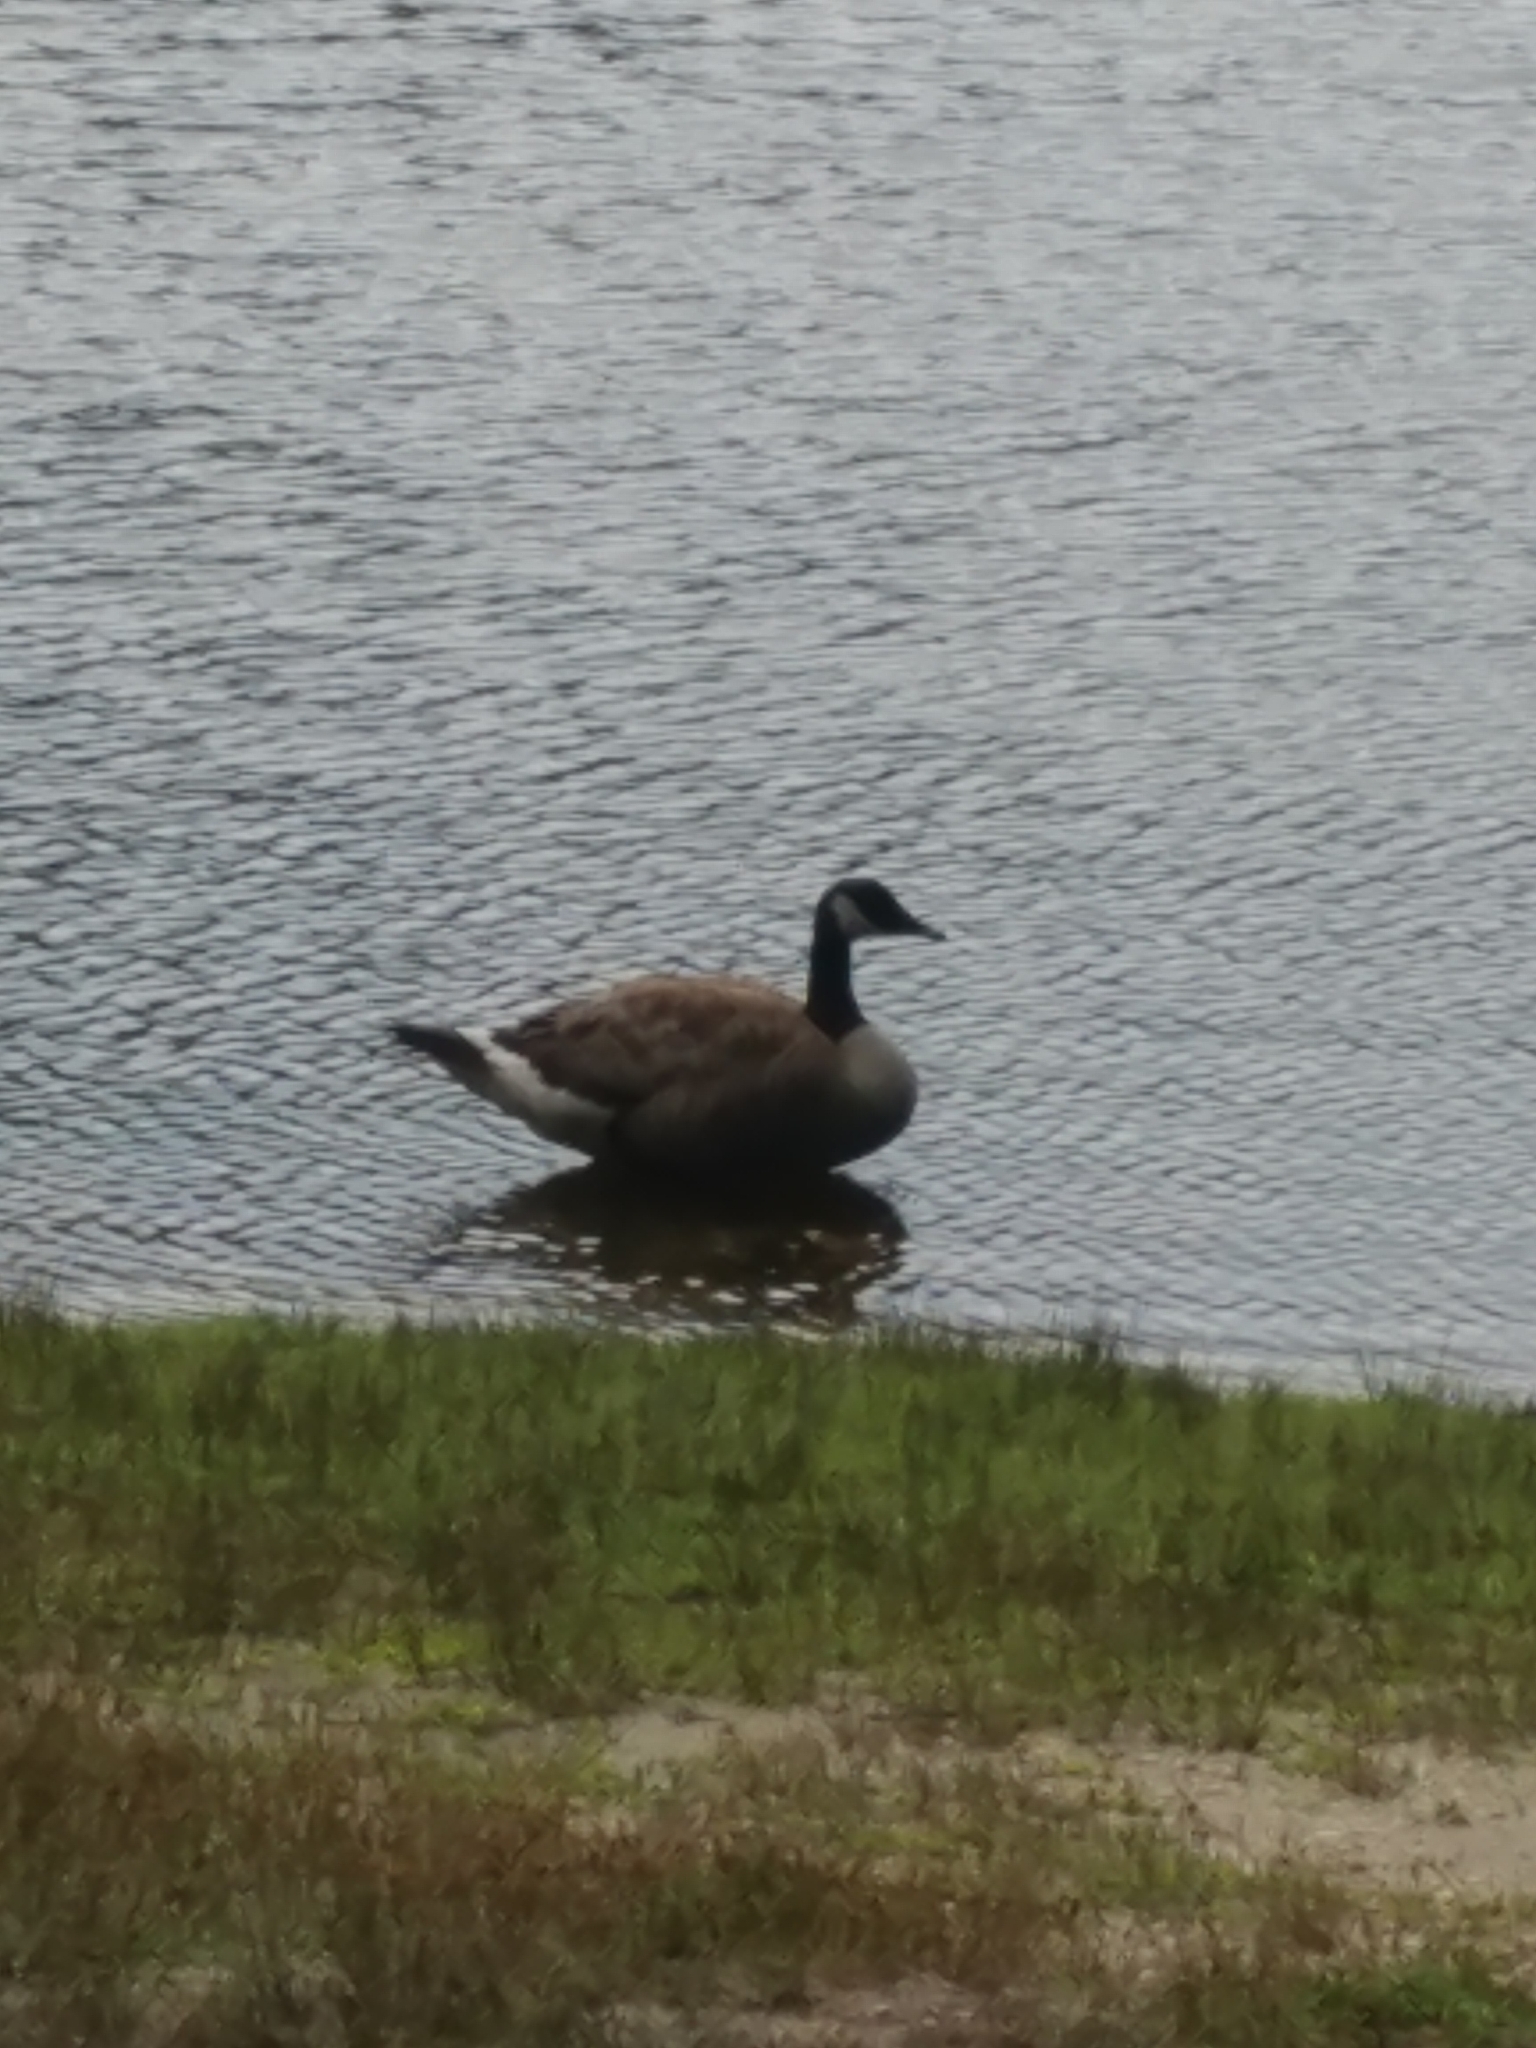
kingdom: Animalia
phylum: Chordata
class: Aves
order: Anseriformes
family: Anatidae
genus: Branta
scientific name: Branta canadensis
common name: Canada goose
